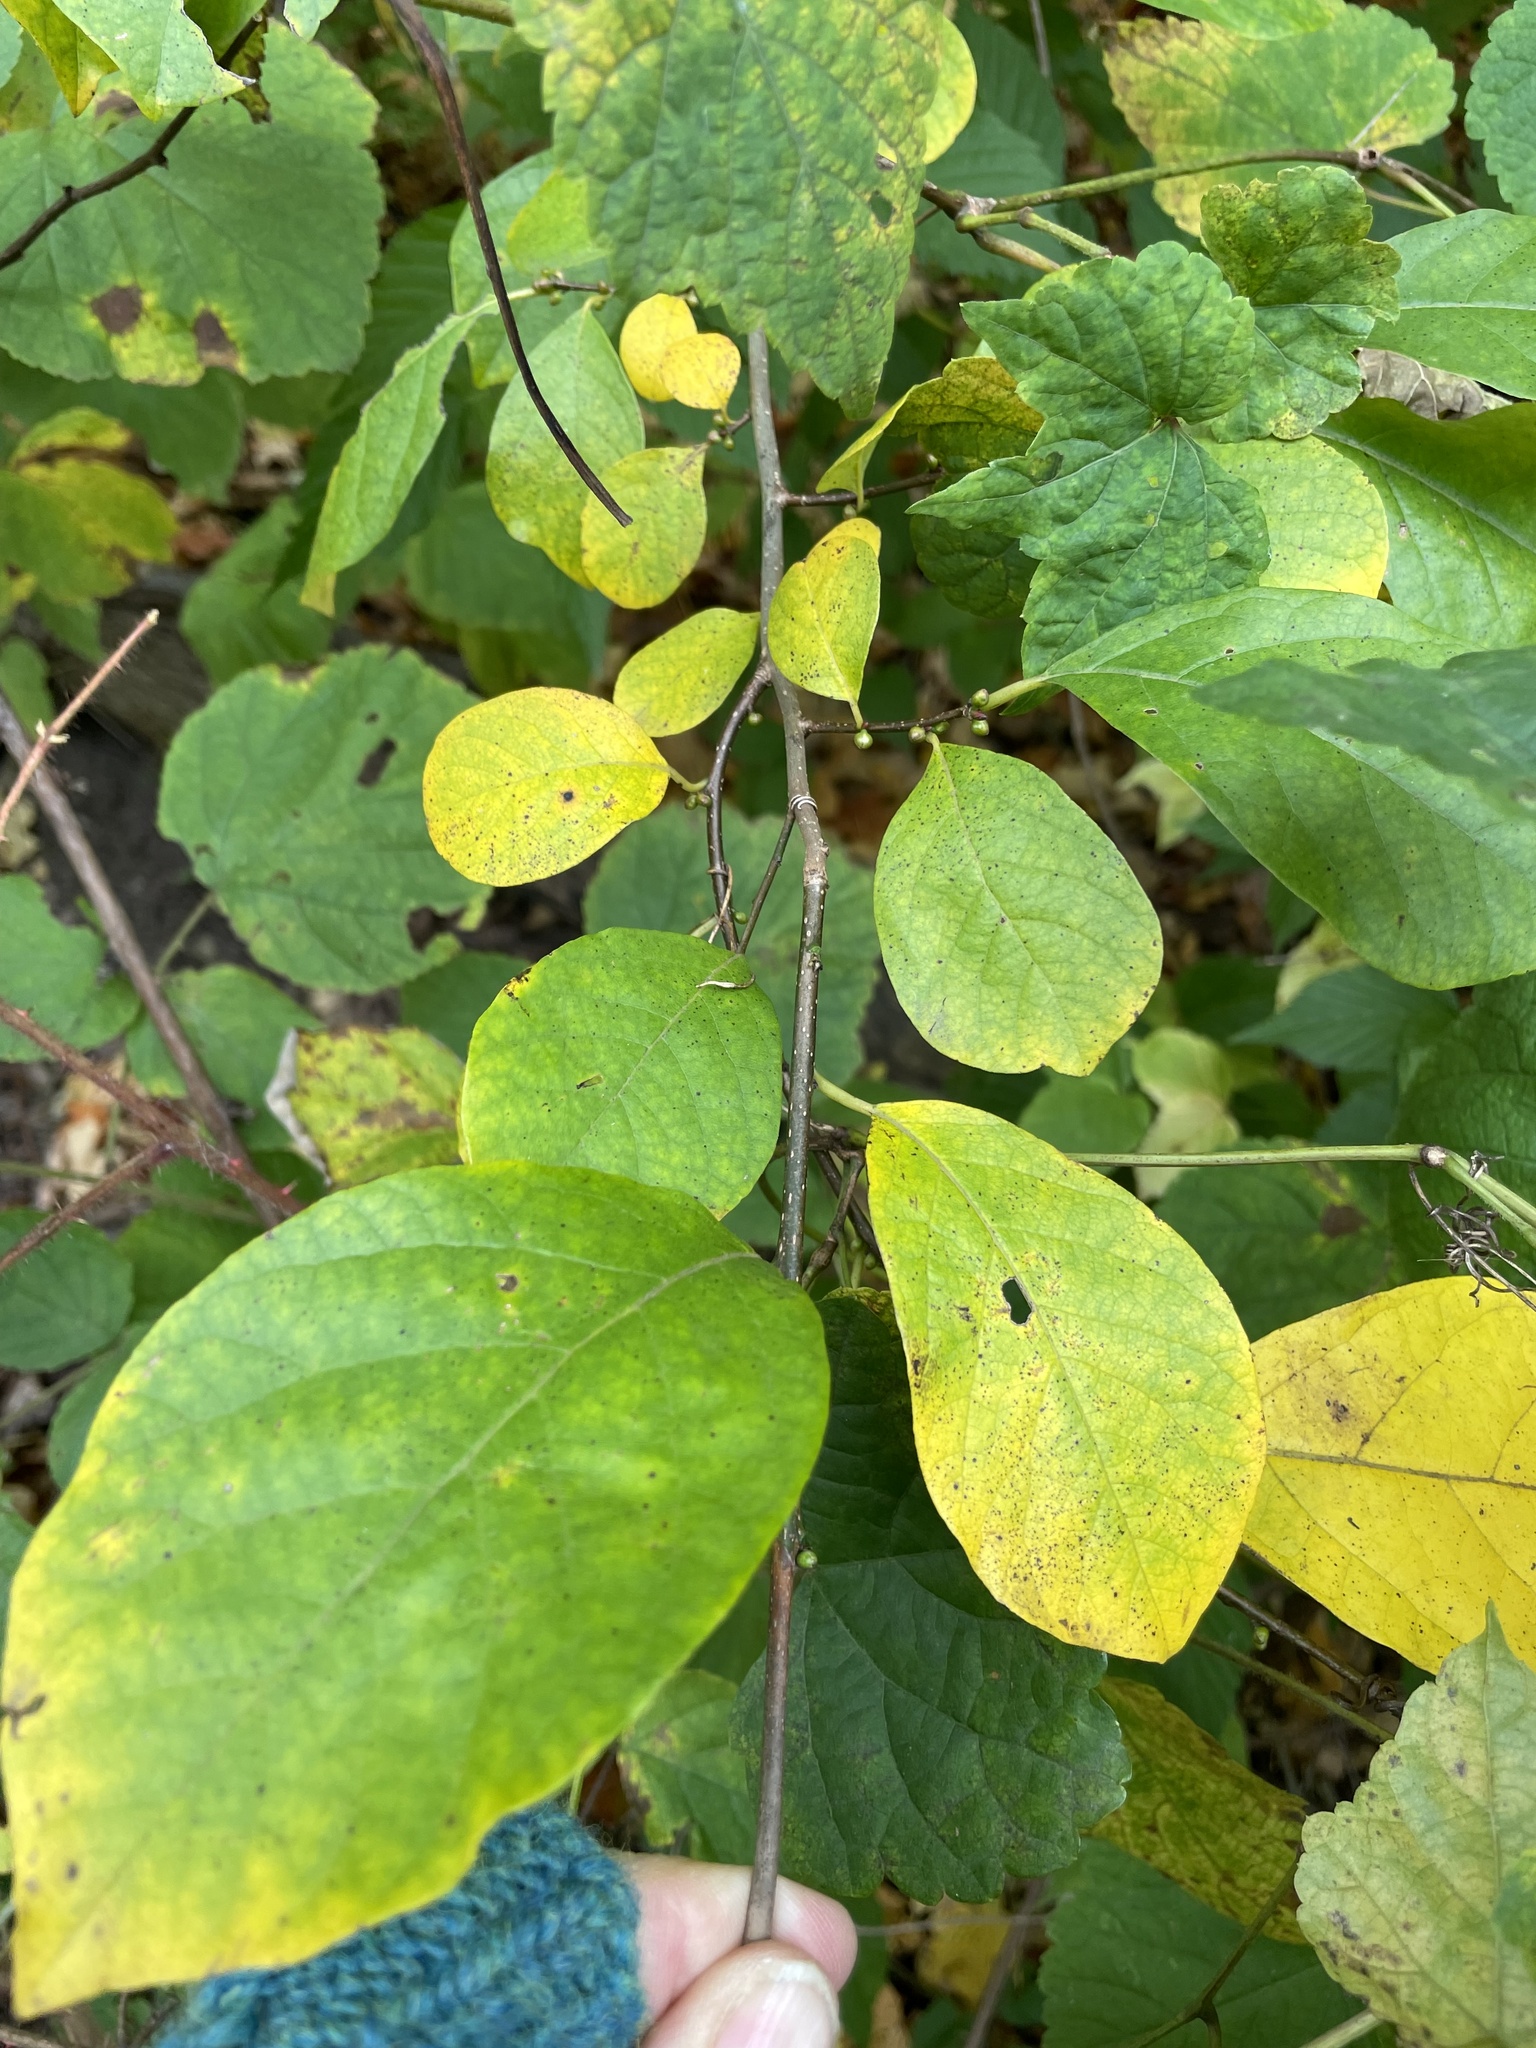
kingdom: Plantae
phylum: Tracheophyta
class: Magnoliopsida
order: Laurales
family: Lauraceae
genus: Lindera
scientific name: Lindera benzoin
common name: Spicebush
